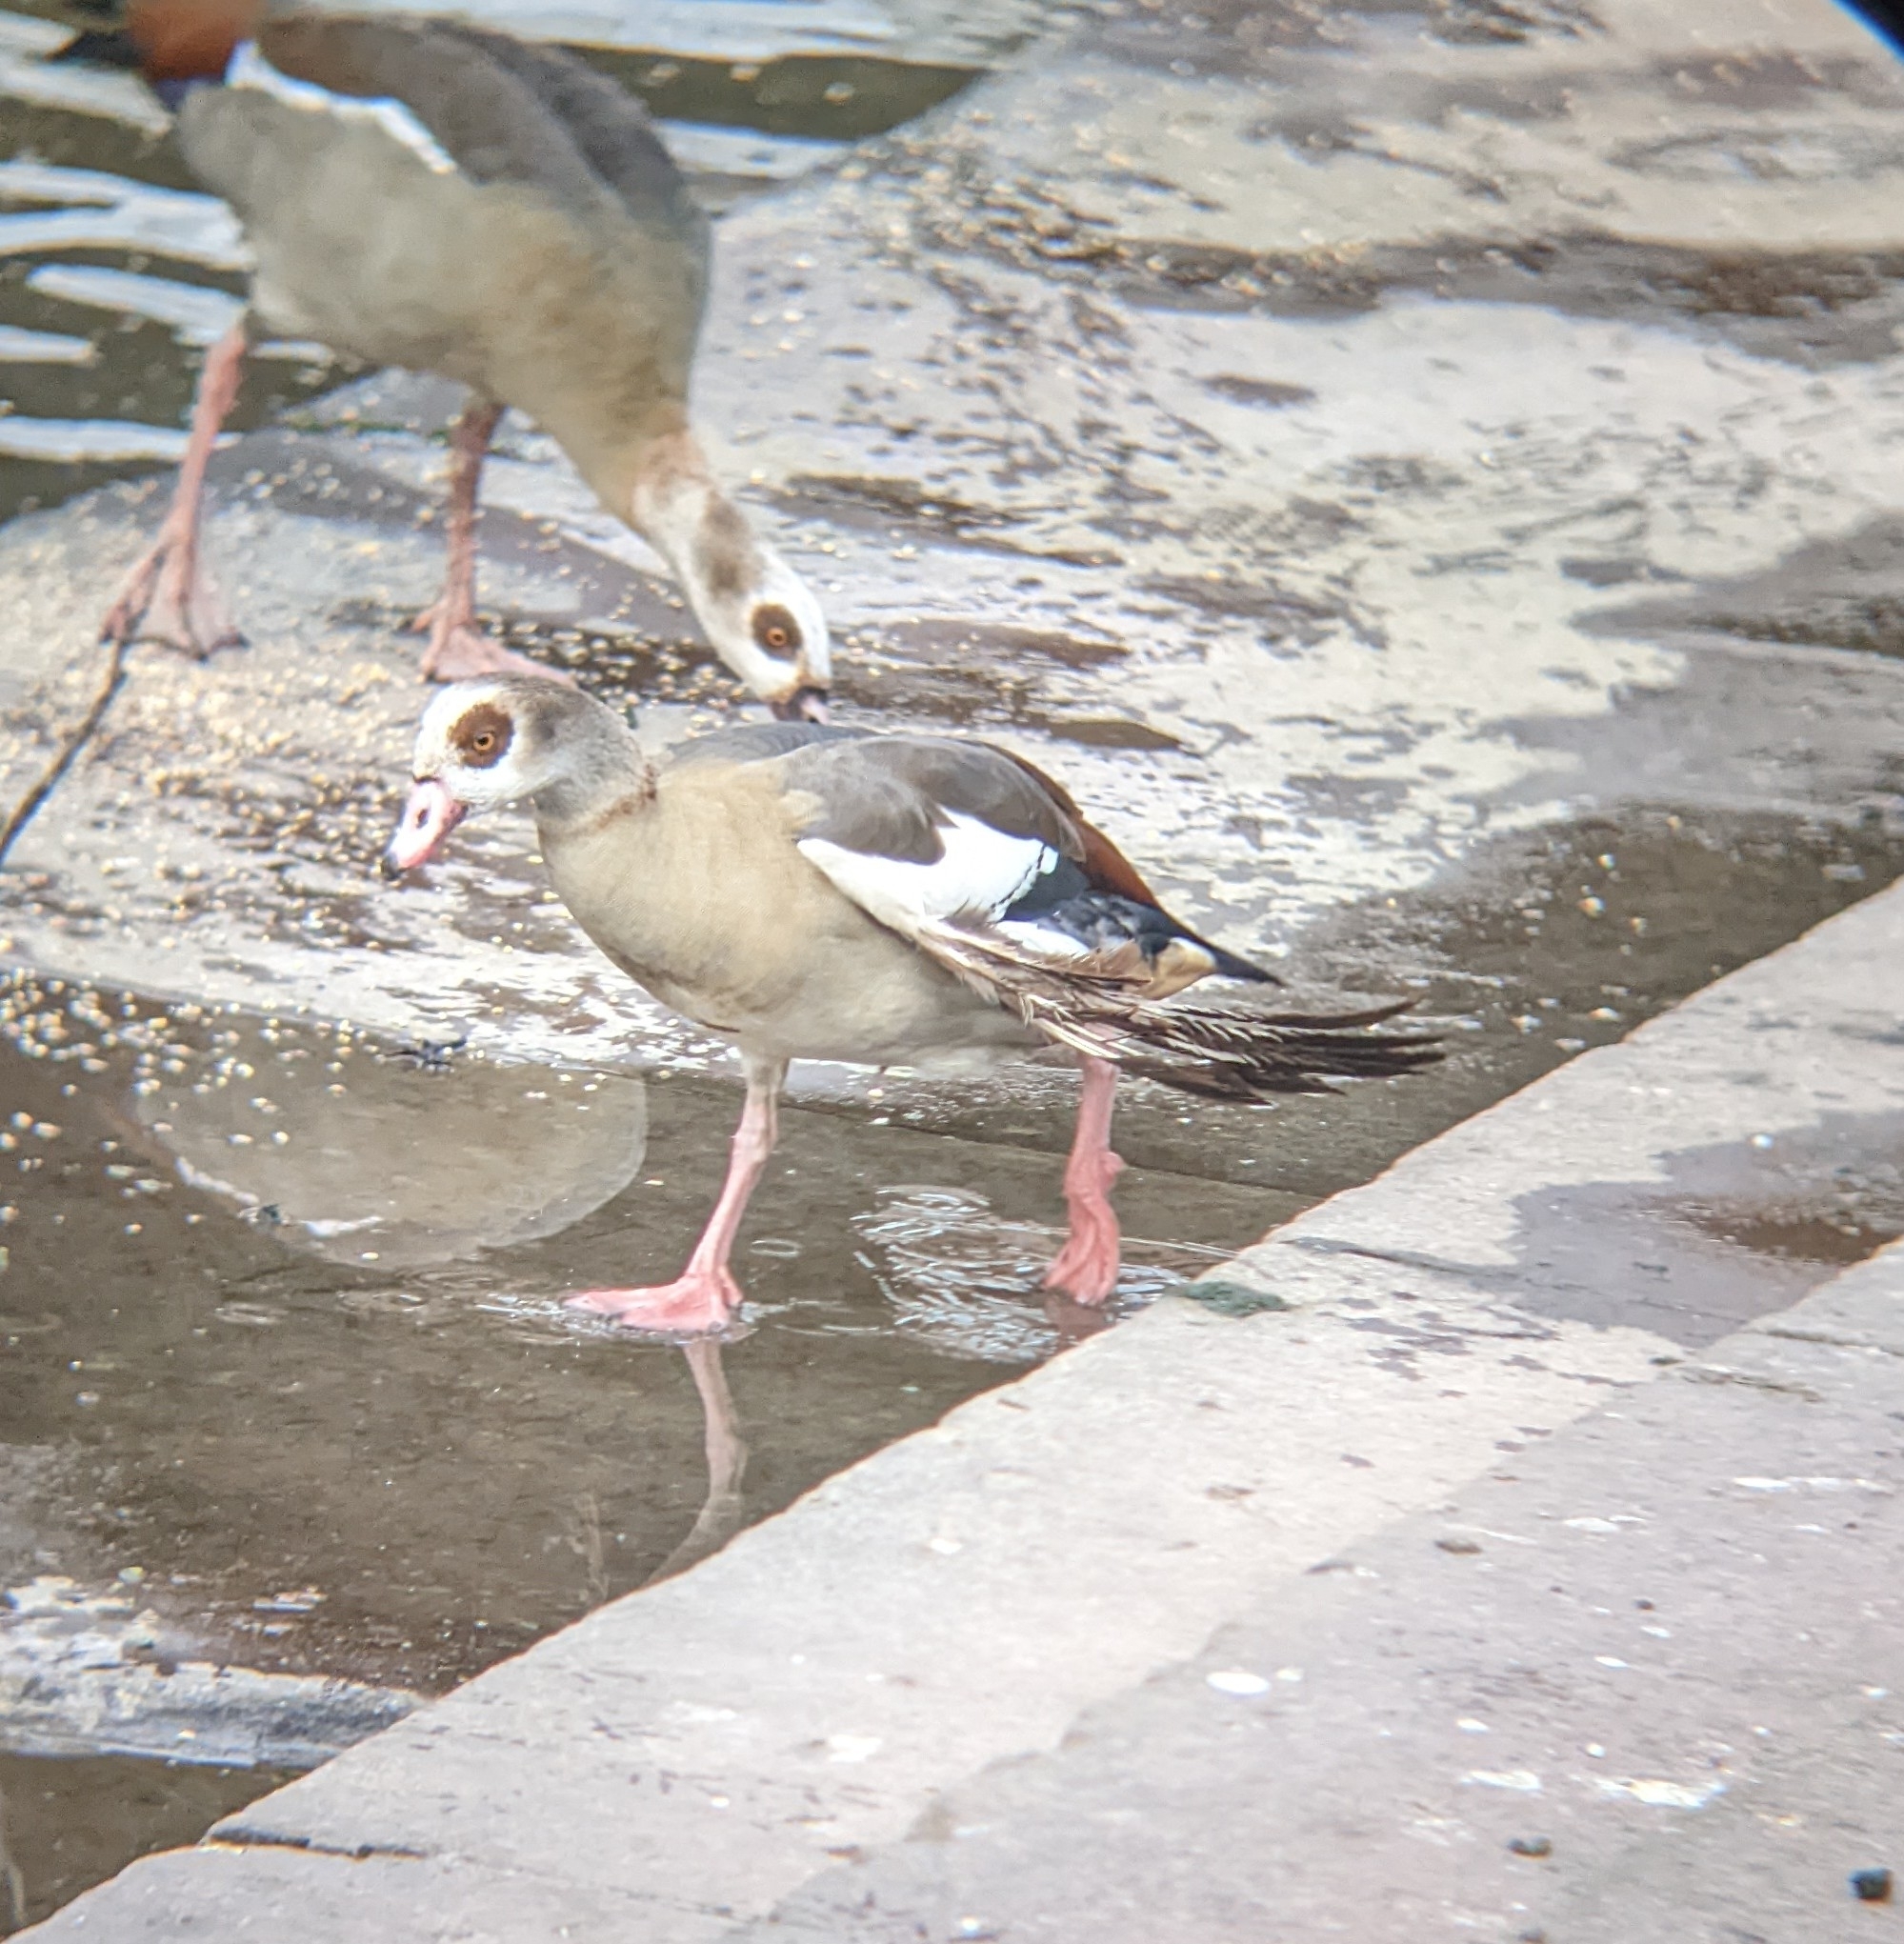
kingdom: Animalia
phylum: Chordata
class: Aves
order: Anseriformes
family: Anatidae
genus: Alopochen
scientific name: Alopochen aegyptiaca
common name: Egyptian goose
